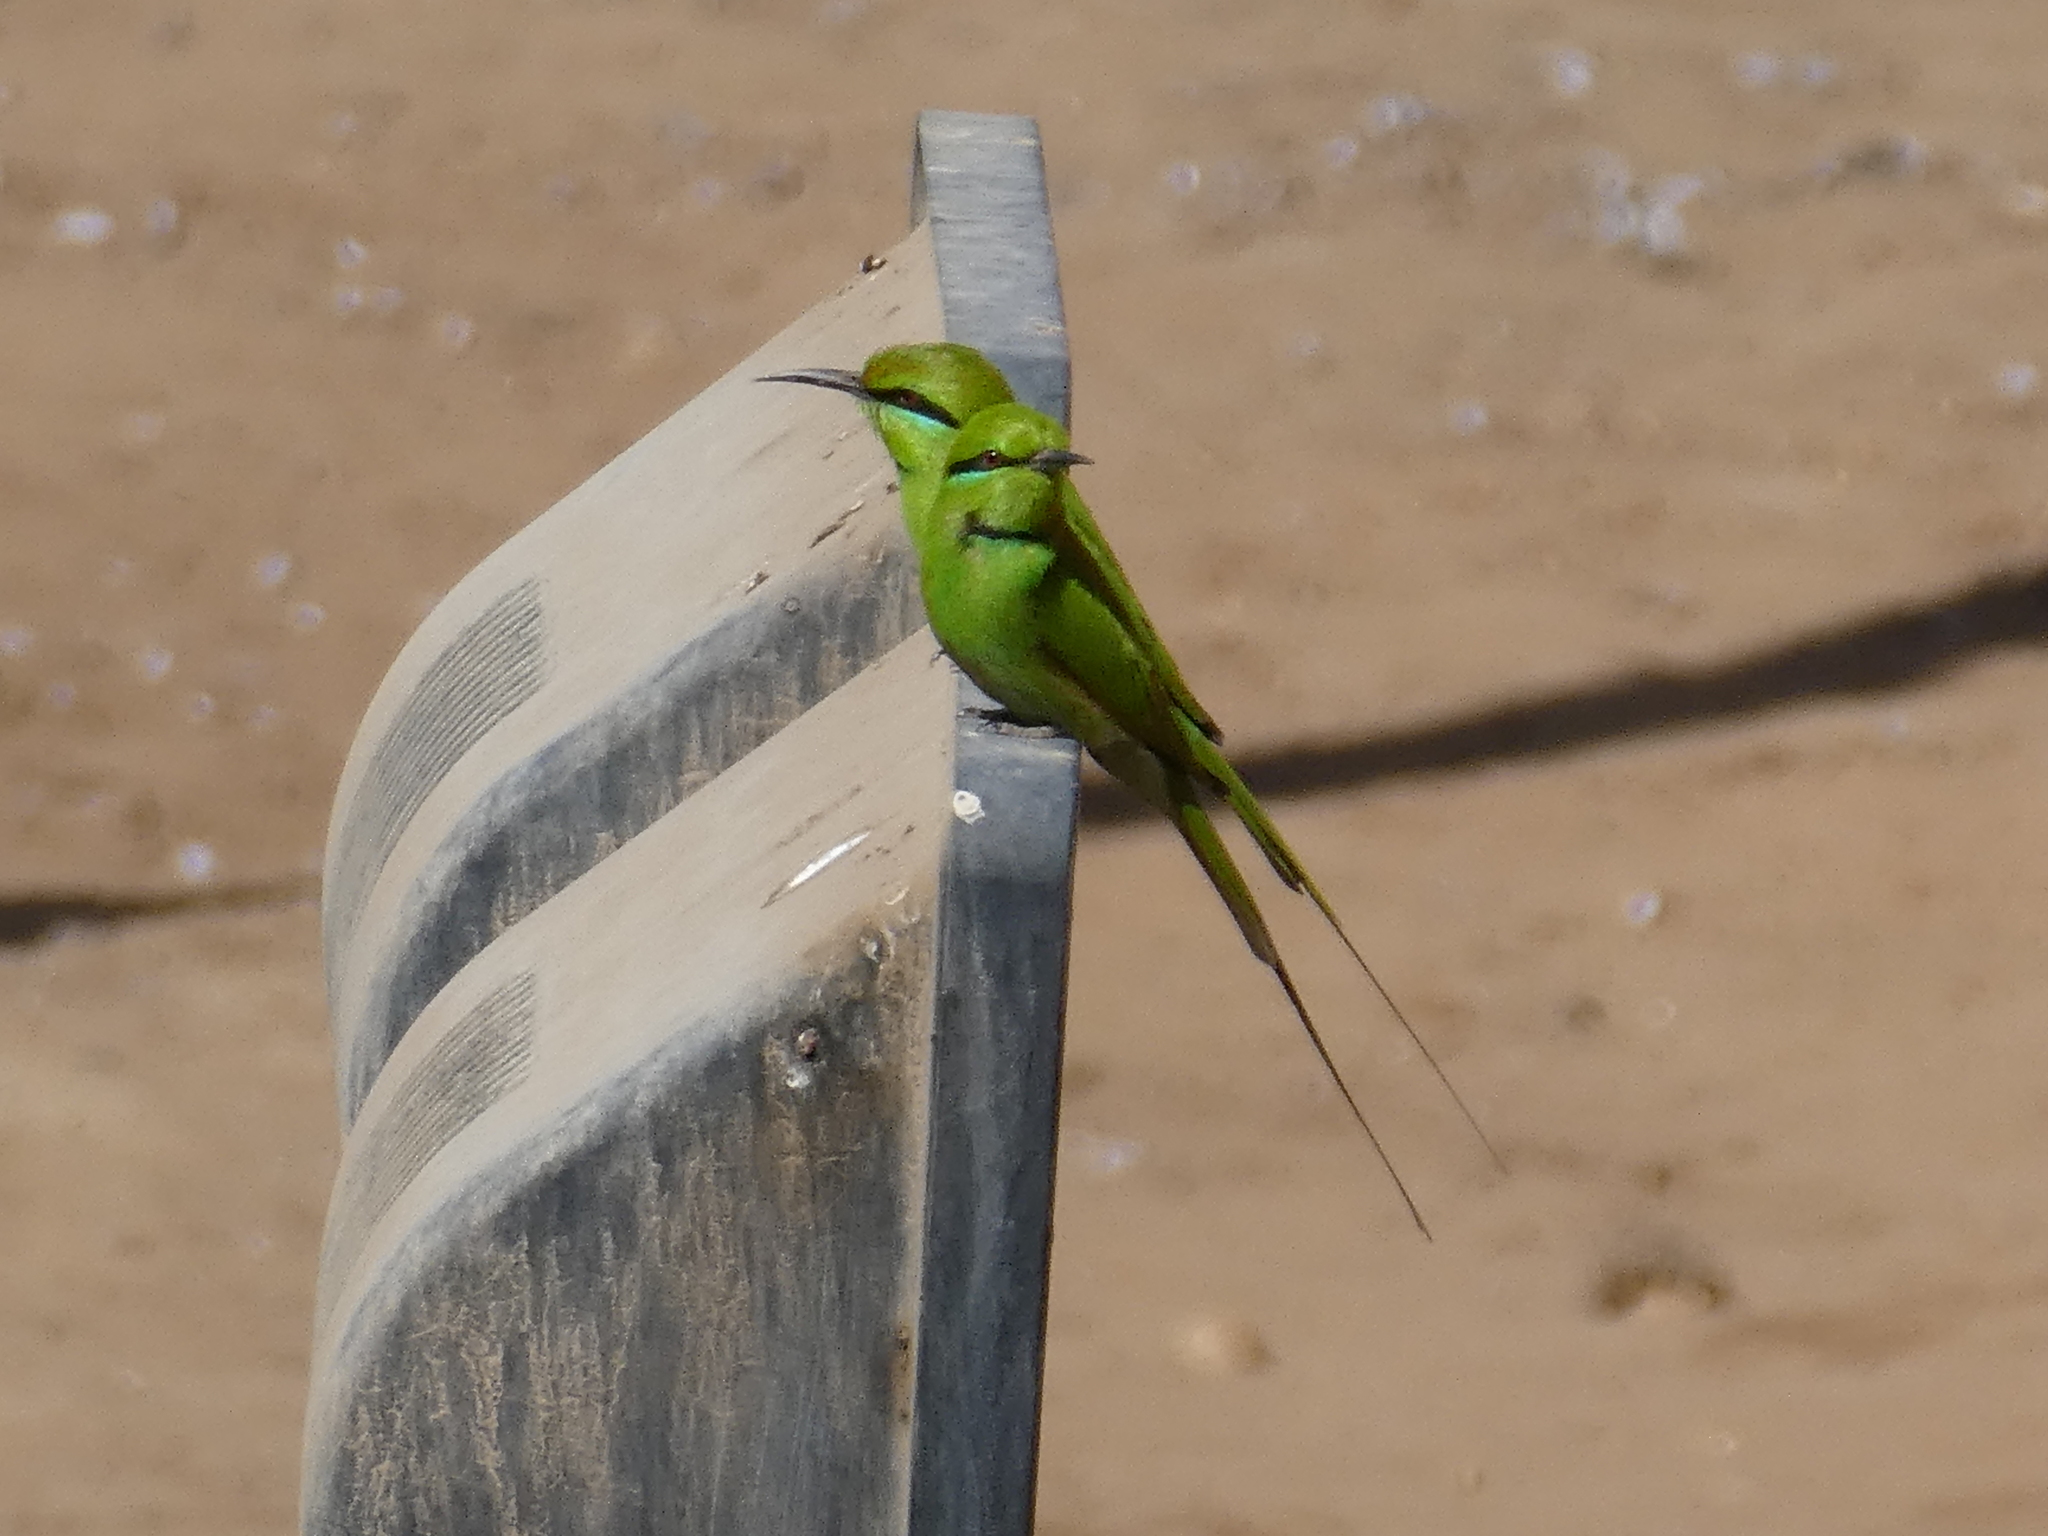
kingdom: Animalia
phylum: Chordata
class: Aves
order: Coraciiformes
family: Meropidae
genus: Merops
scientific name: Merops viridissimus
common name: African green bee-eater
